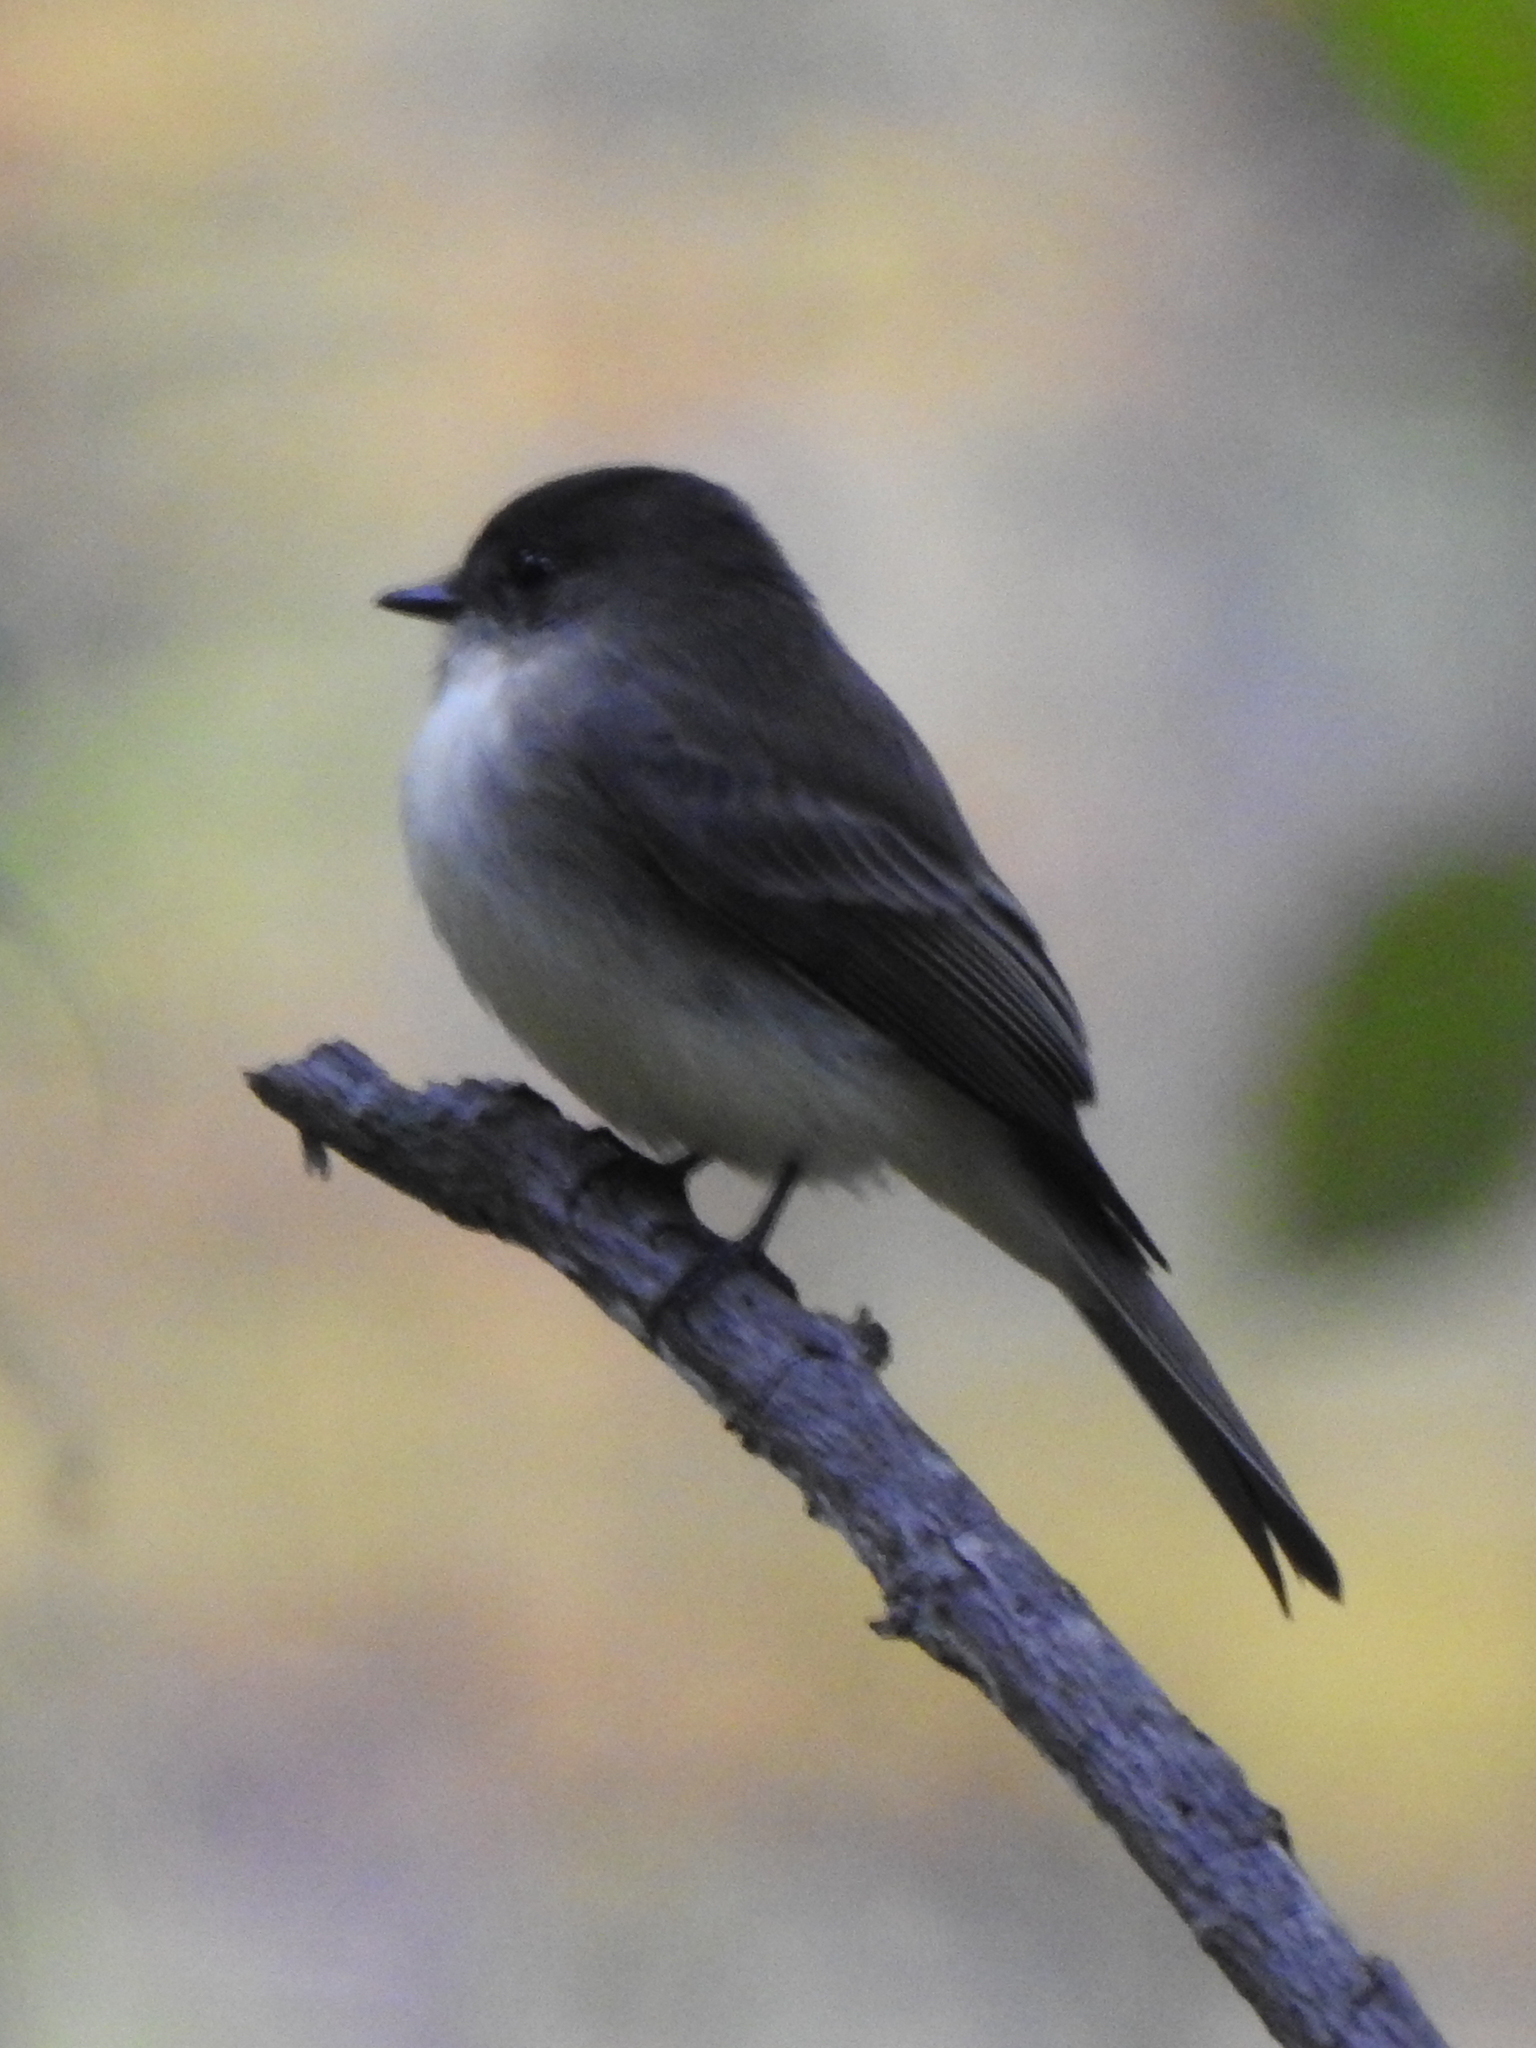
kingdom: Animalia
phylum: Chordata
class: Aves
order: Passeriformes
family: Tyrannidae
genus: Sayornis
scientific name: Sayornis phoebe
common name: Eastern phoebe
